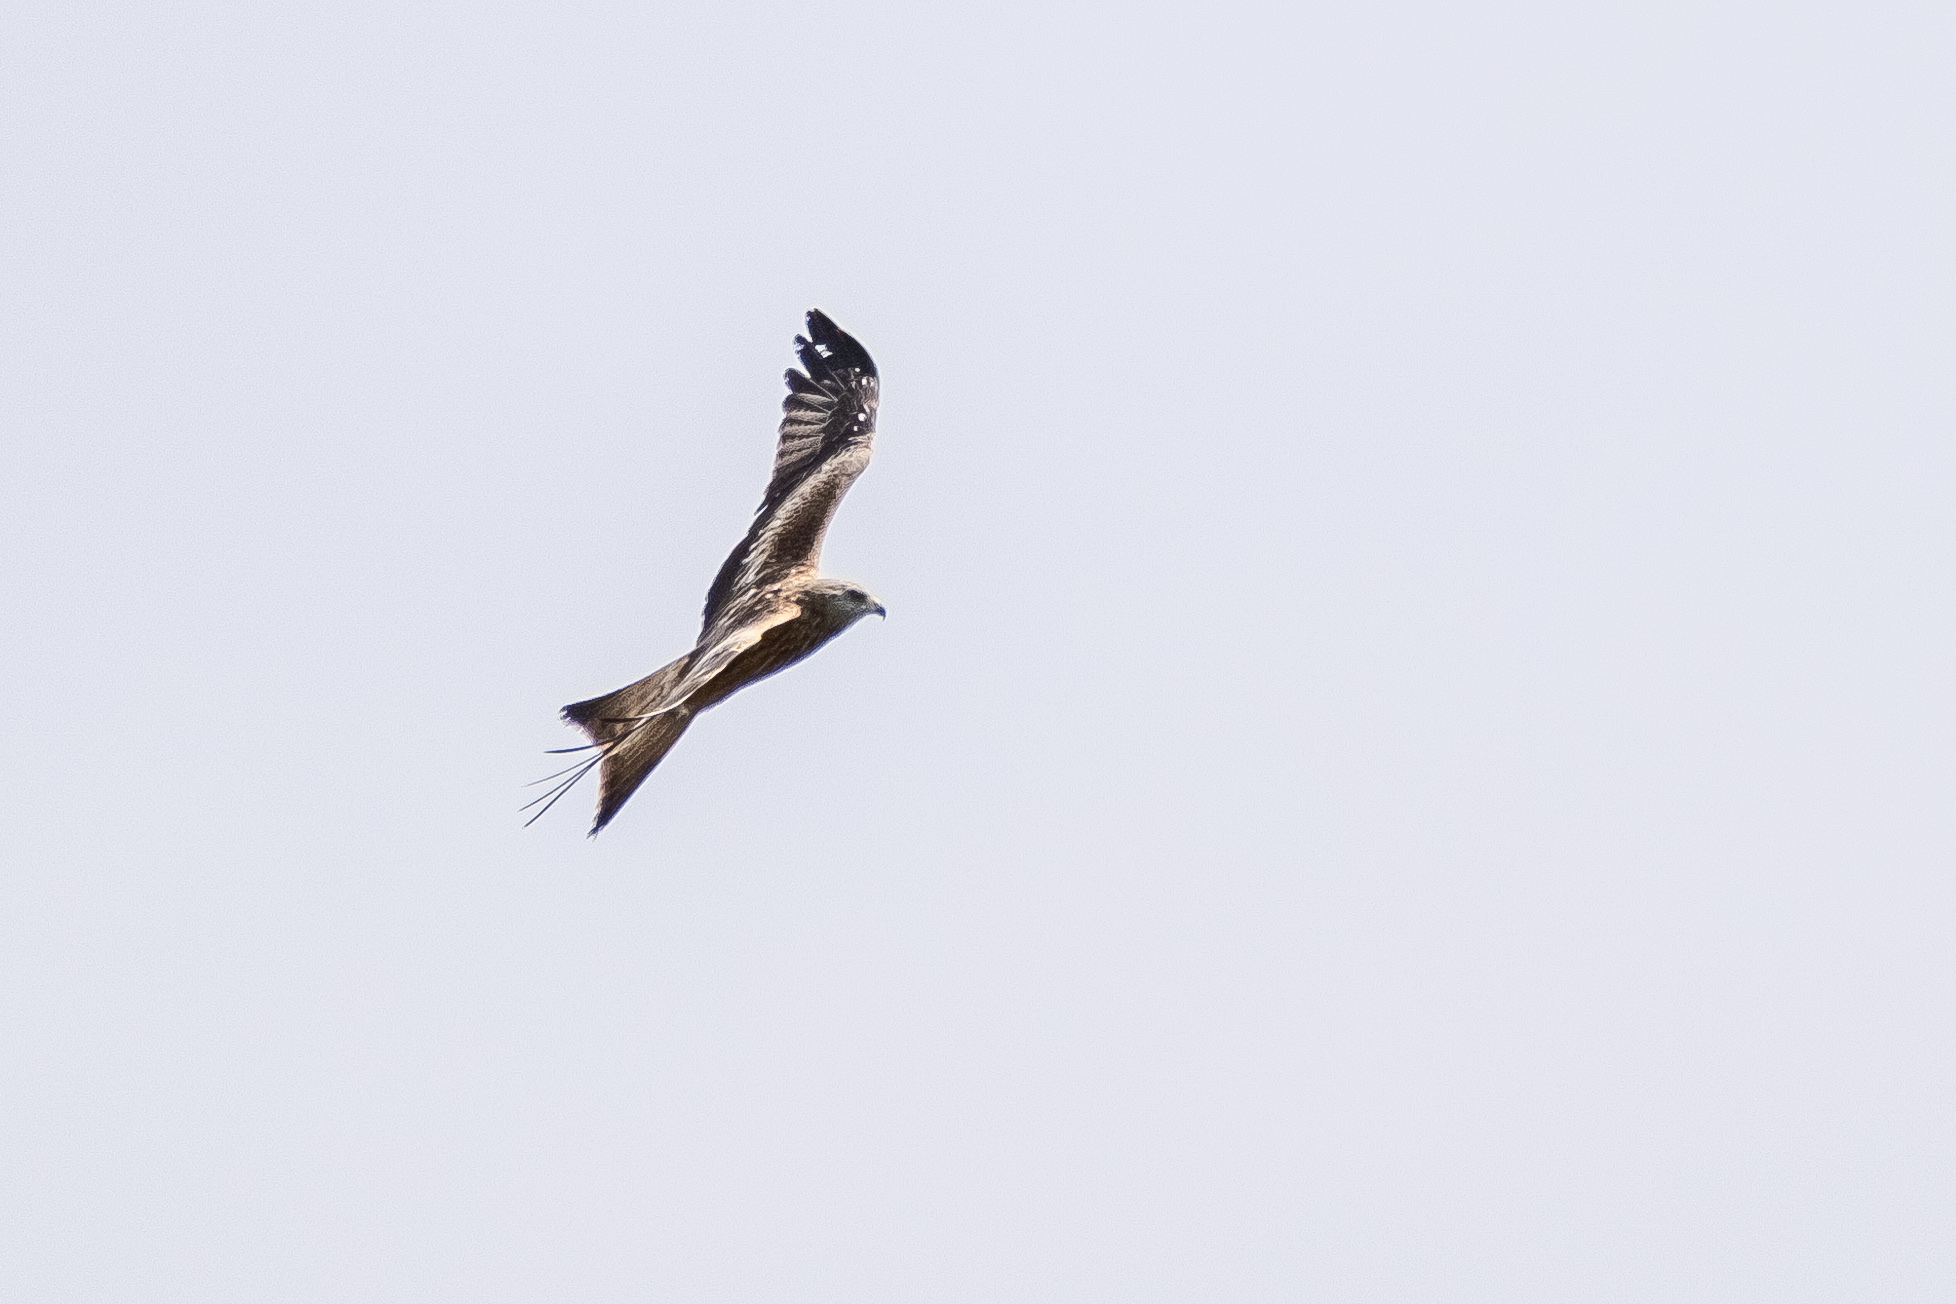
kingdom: Animalia
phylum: Chordata
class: Aves
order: Accipitriformes
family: Accipitridae
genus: Milvus
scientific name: Milvus milvus
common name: Red kite
